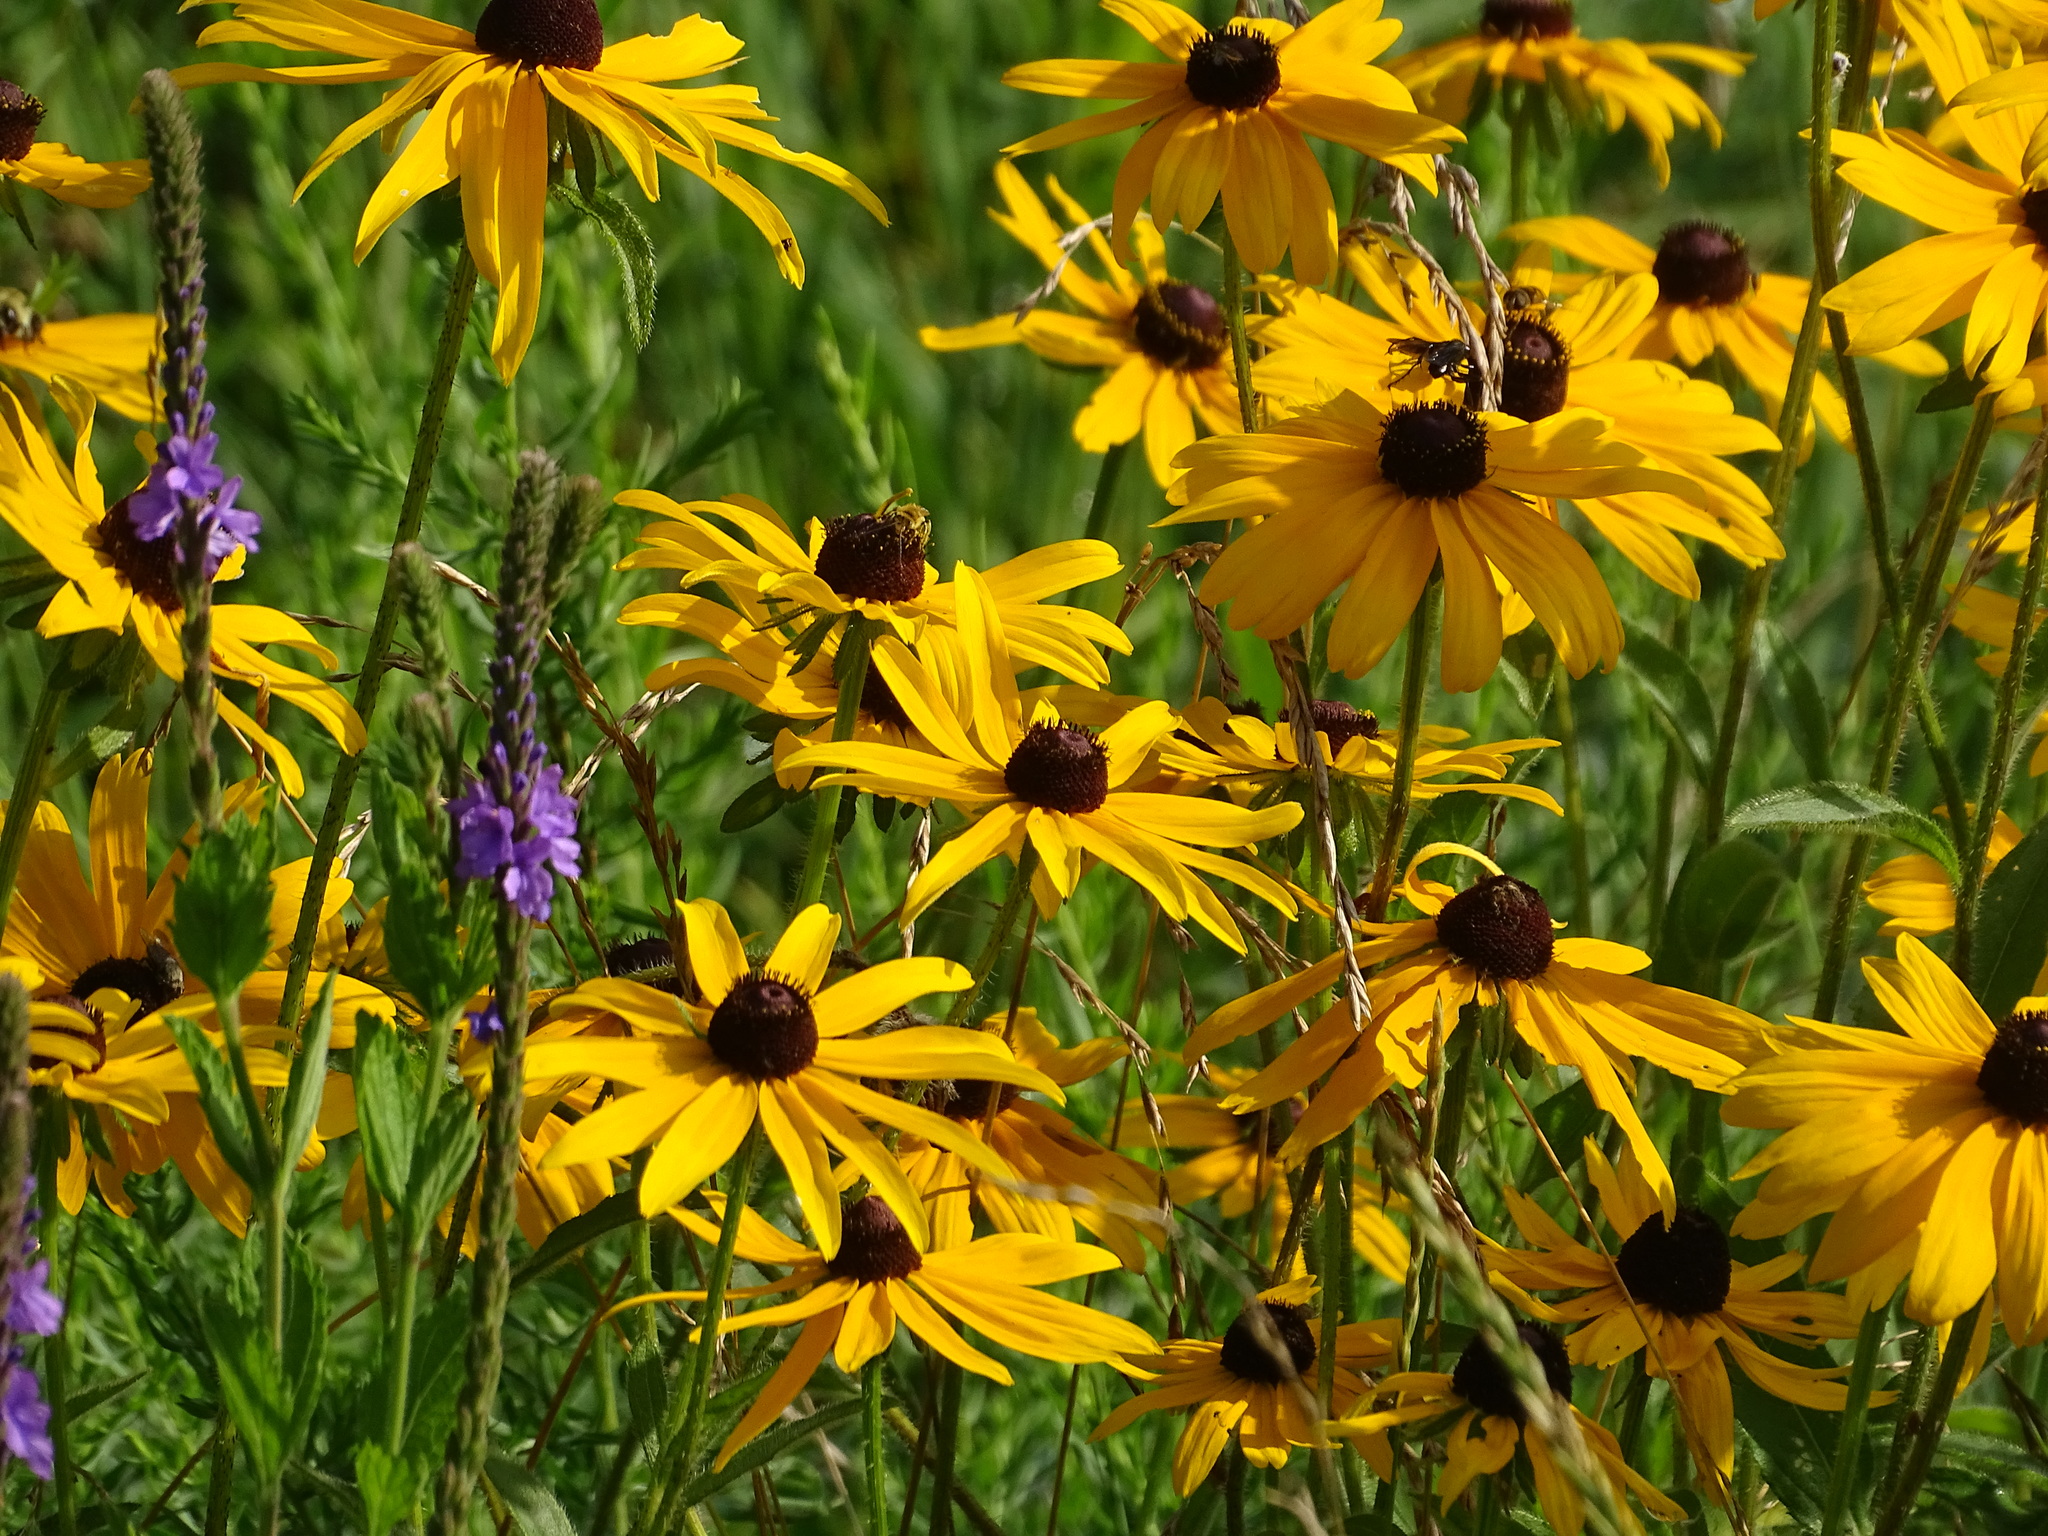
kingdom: Plantae
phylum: Tracheophyta
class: Magnoliopsida
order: Asterales
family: Asteraceae
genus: Rudbeckia
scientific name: Rudbeckia hirta
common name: Black-eyed-susan
